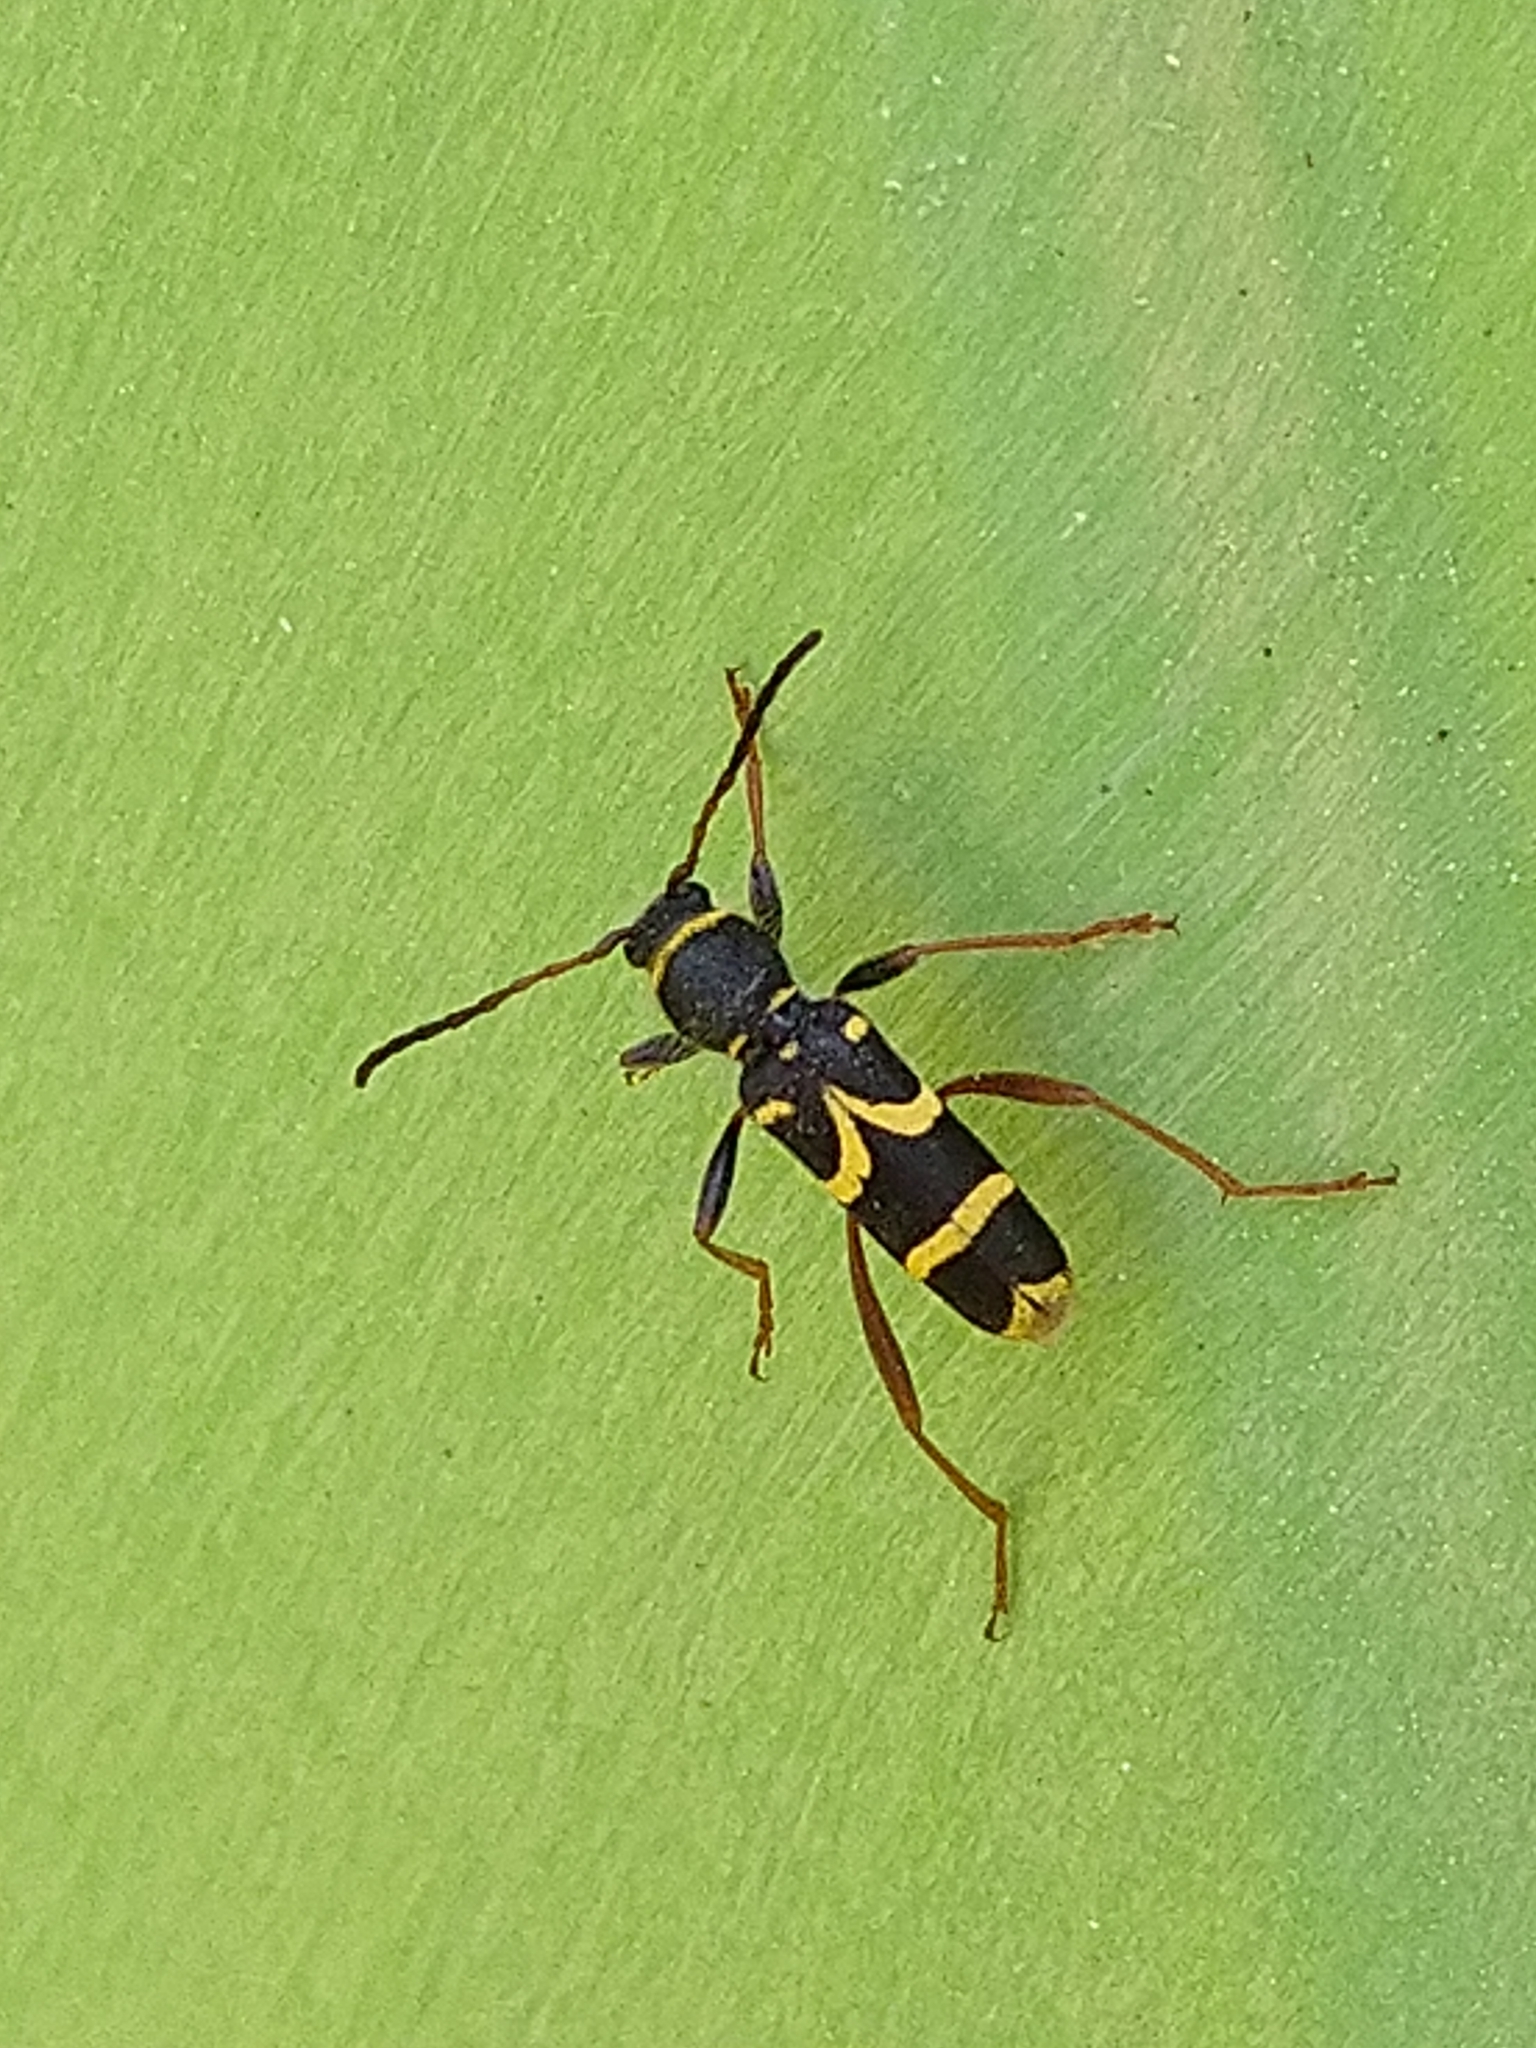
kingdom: Animalia
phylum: Arthropoda
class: Insecta
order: Coleoptera
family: Cerambycidae
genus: Clytus
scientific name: Clytus arietis
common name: Wasp beetle
